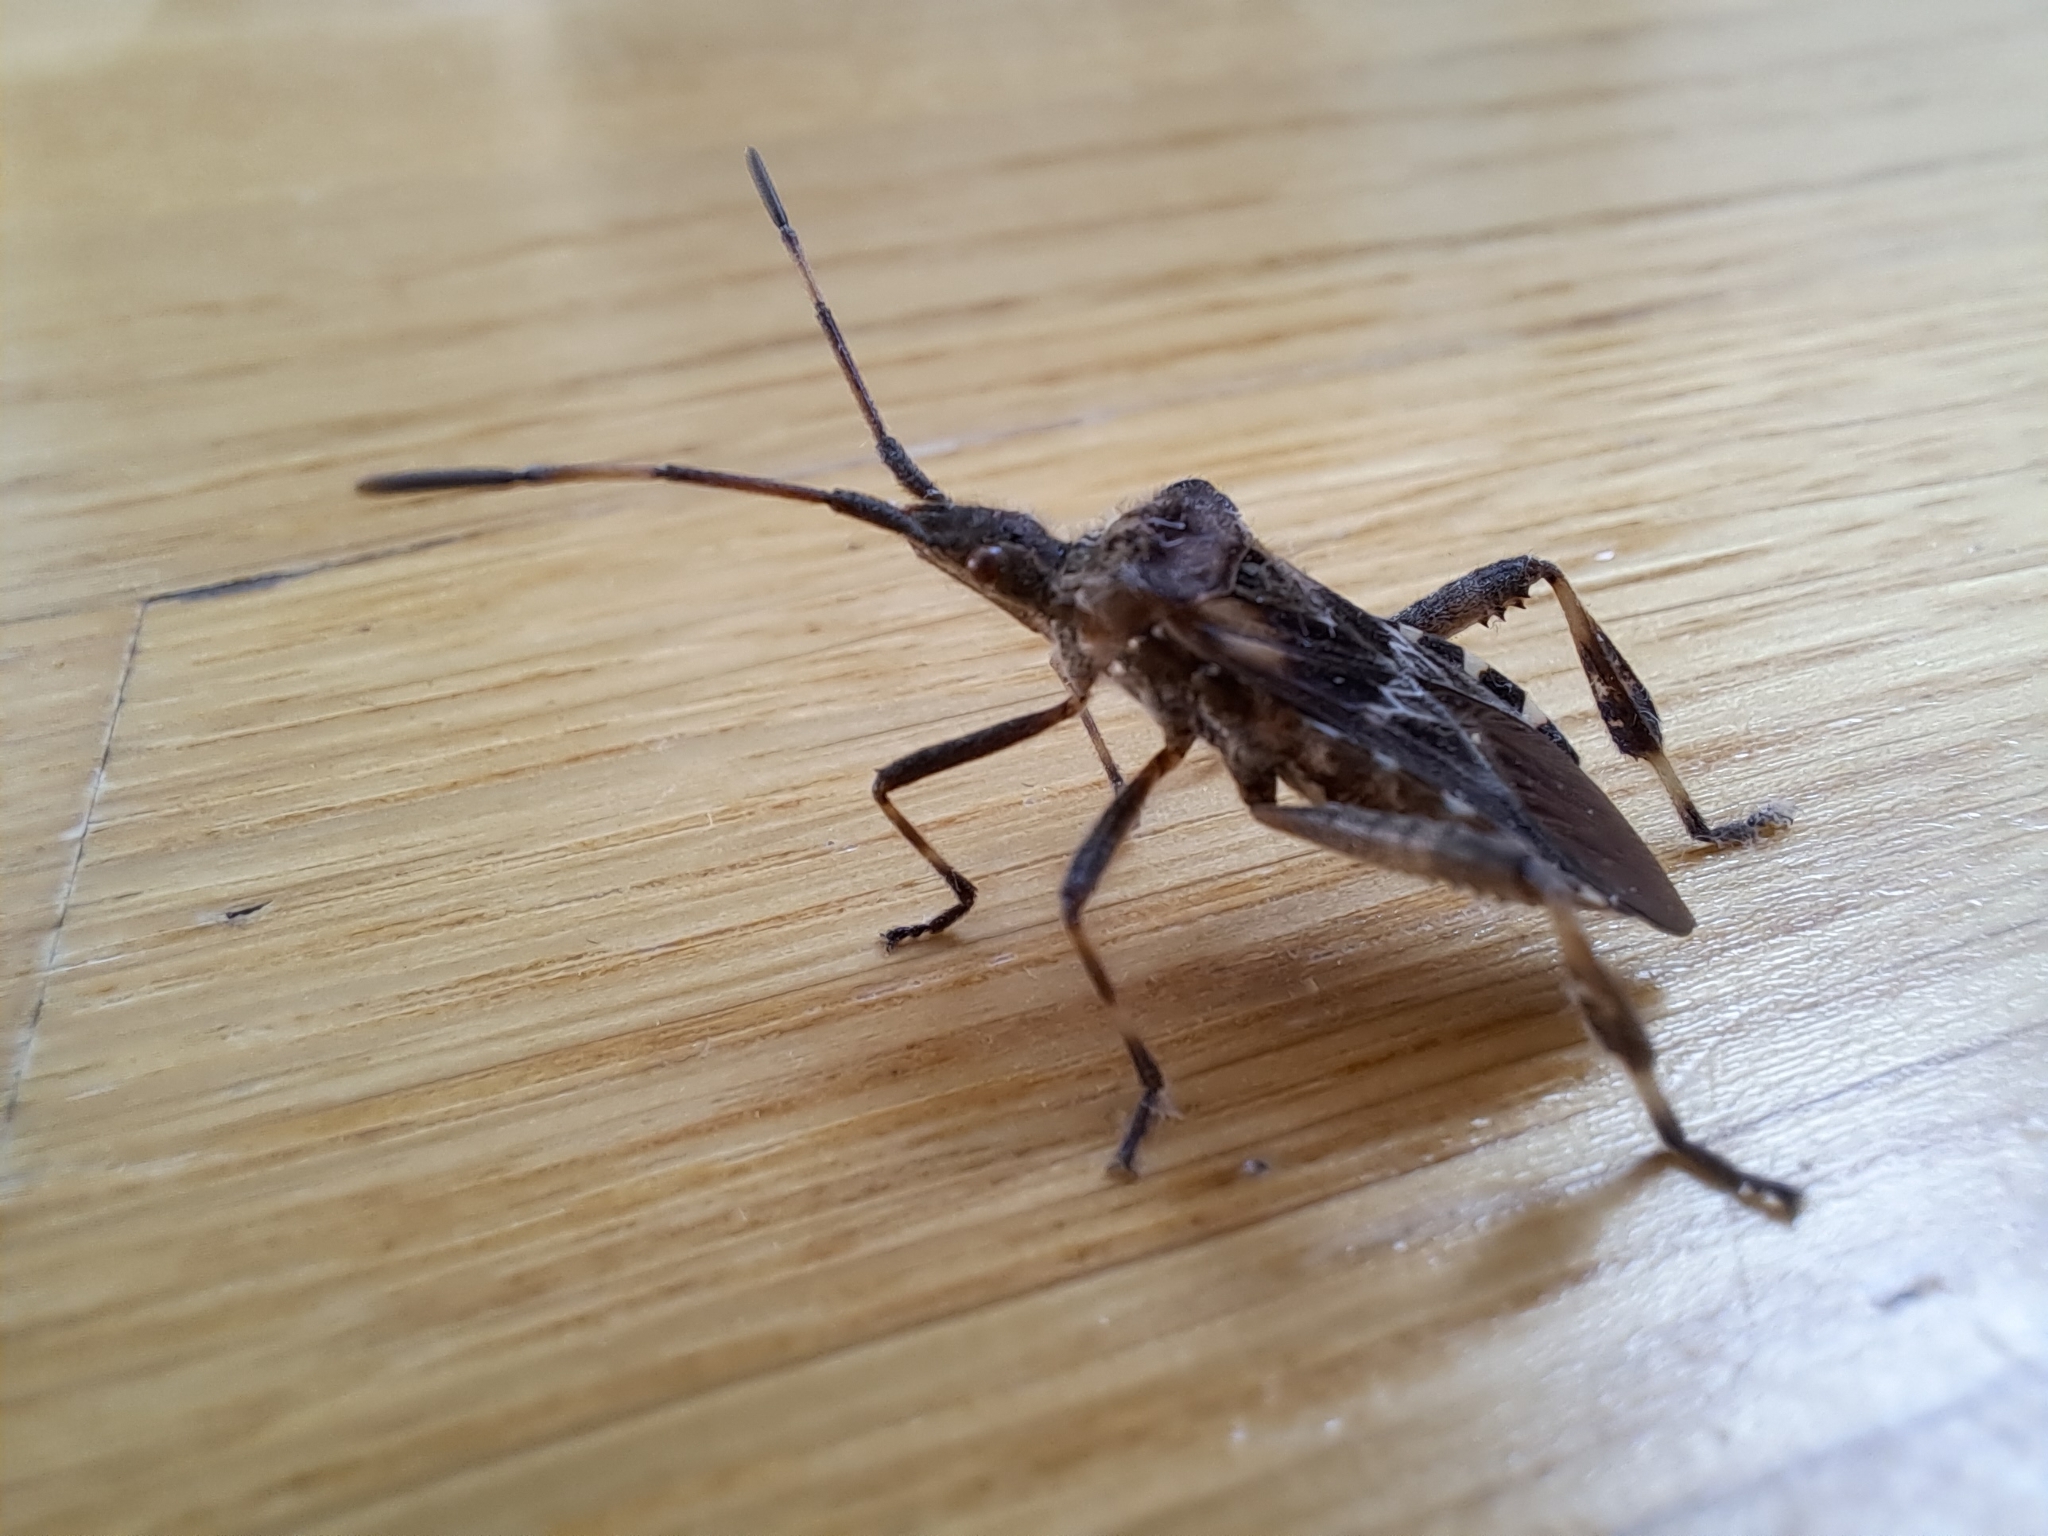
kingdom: Animalia
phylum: Arthropoda
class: Insecta
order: Hemiptera
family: Coreidae
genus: Leptoglossus
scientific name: Leptoglossus occidentalis
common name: Western conifer-seed bug
